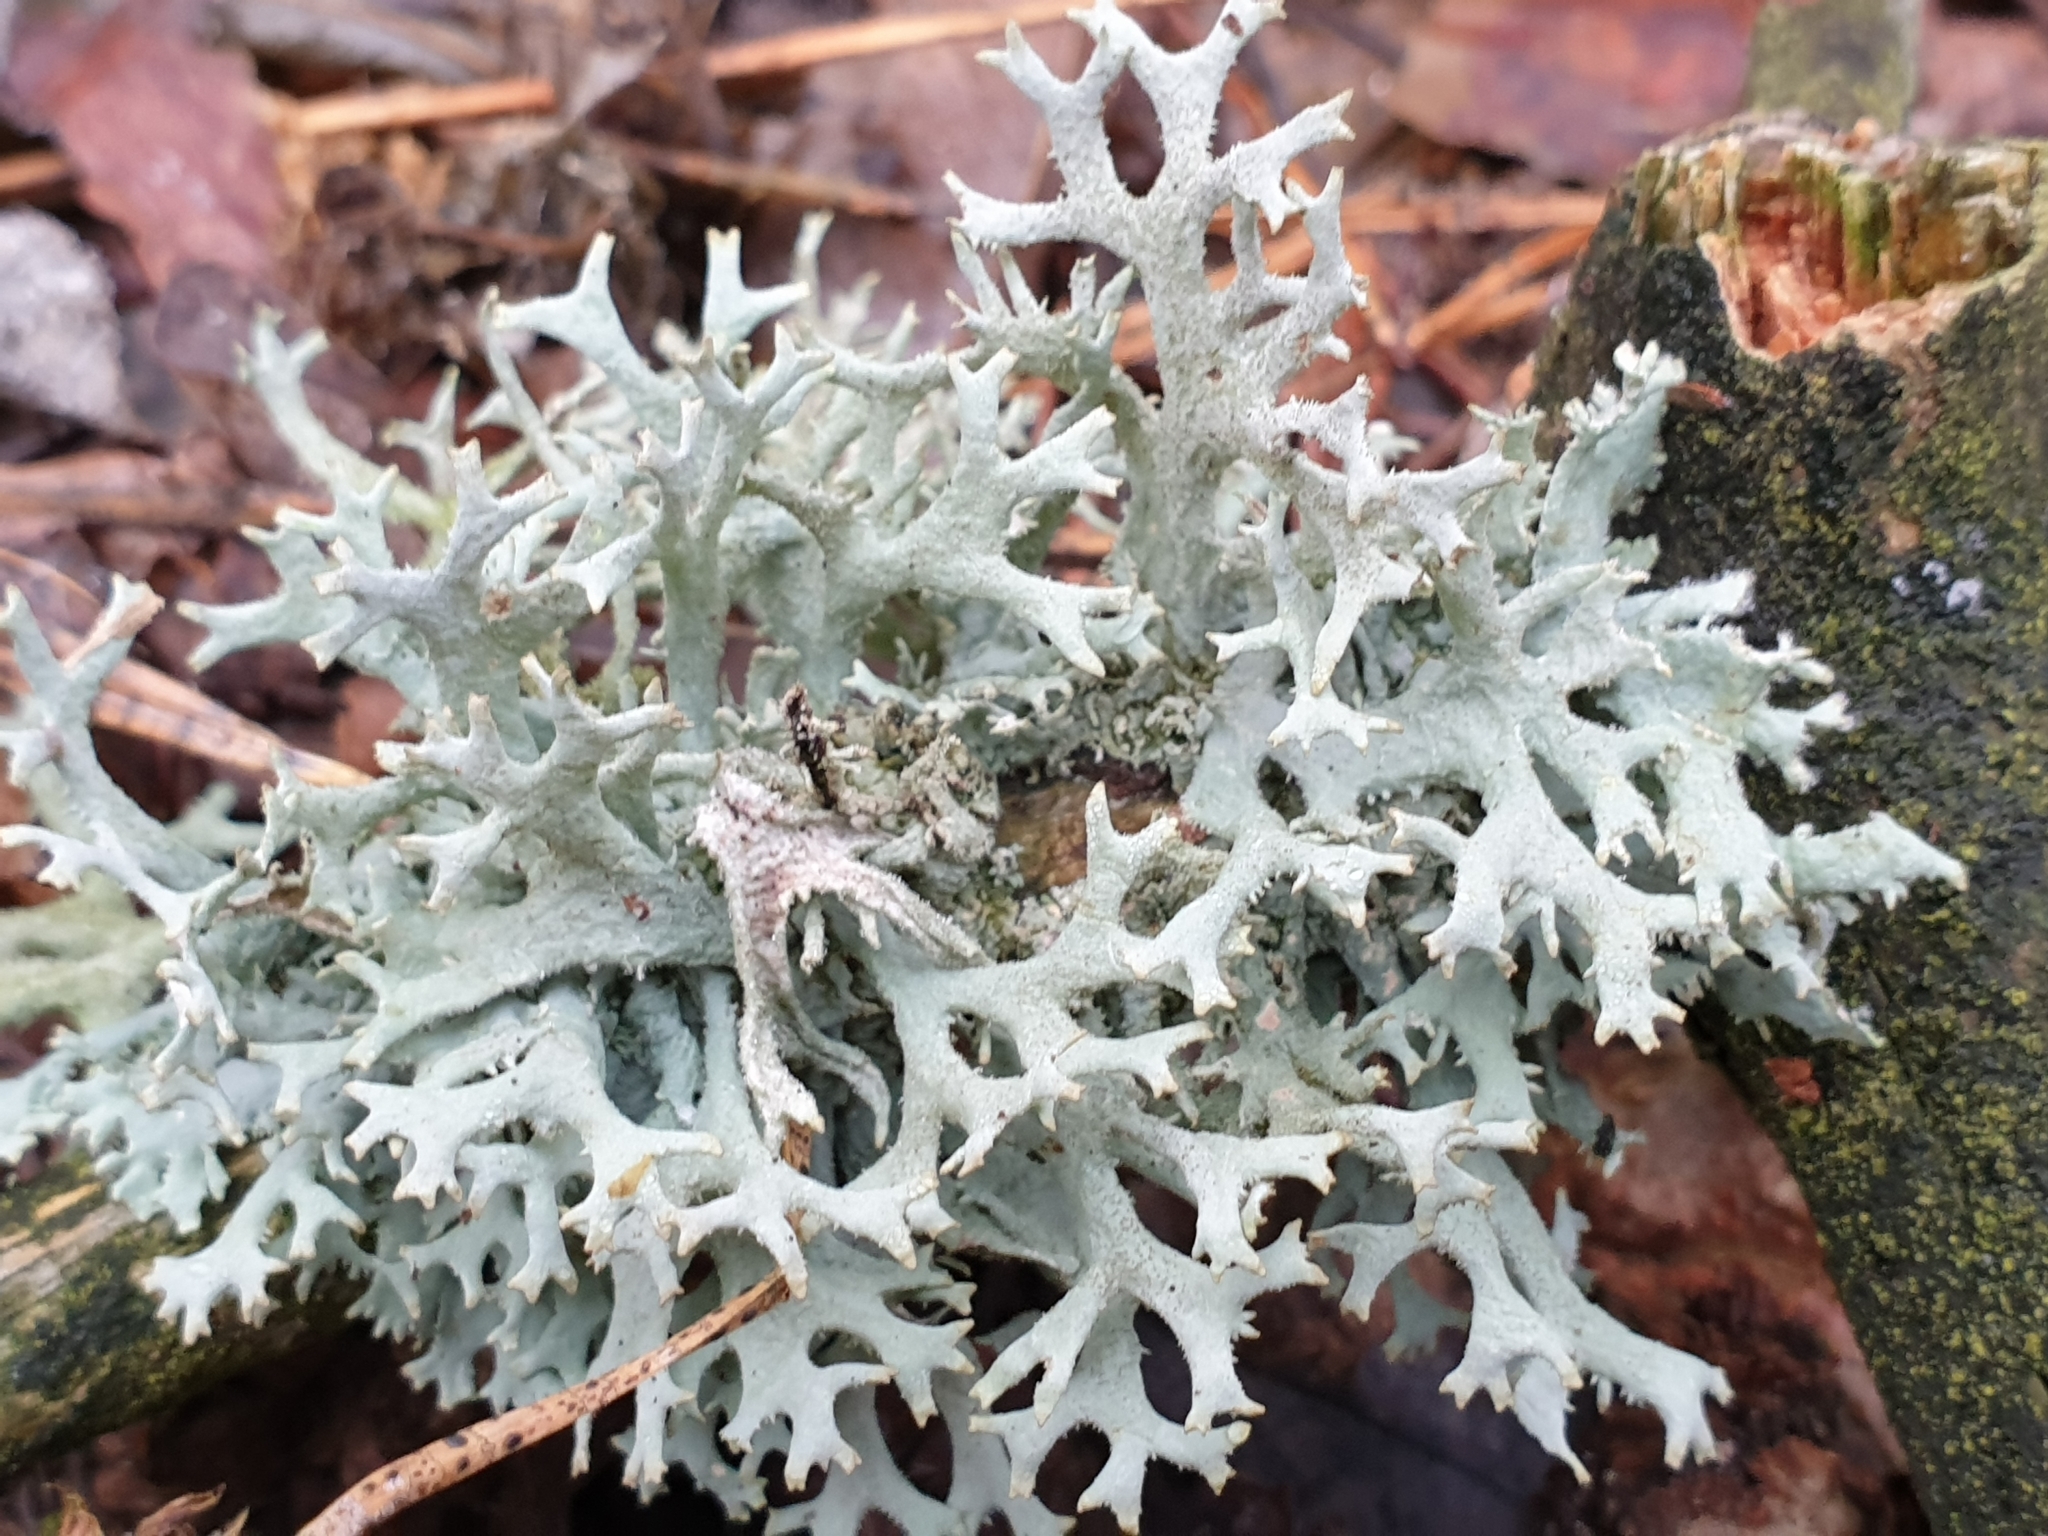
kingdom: Fungi
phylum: Ascomycota
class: Lecanoromycetes
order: Lecanorales
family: Parmeliaceae
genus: Pseudevernia
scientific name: Pseudevernia furfuracea
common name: Tree moss
